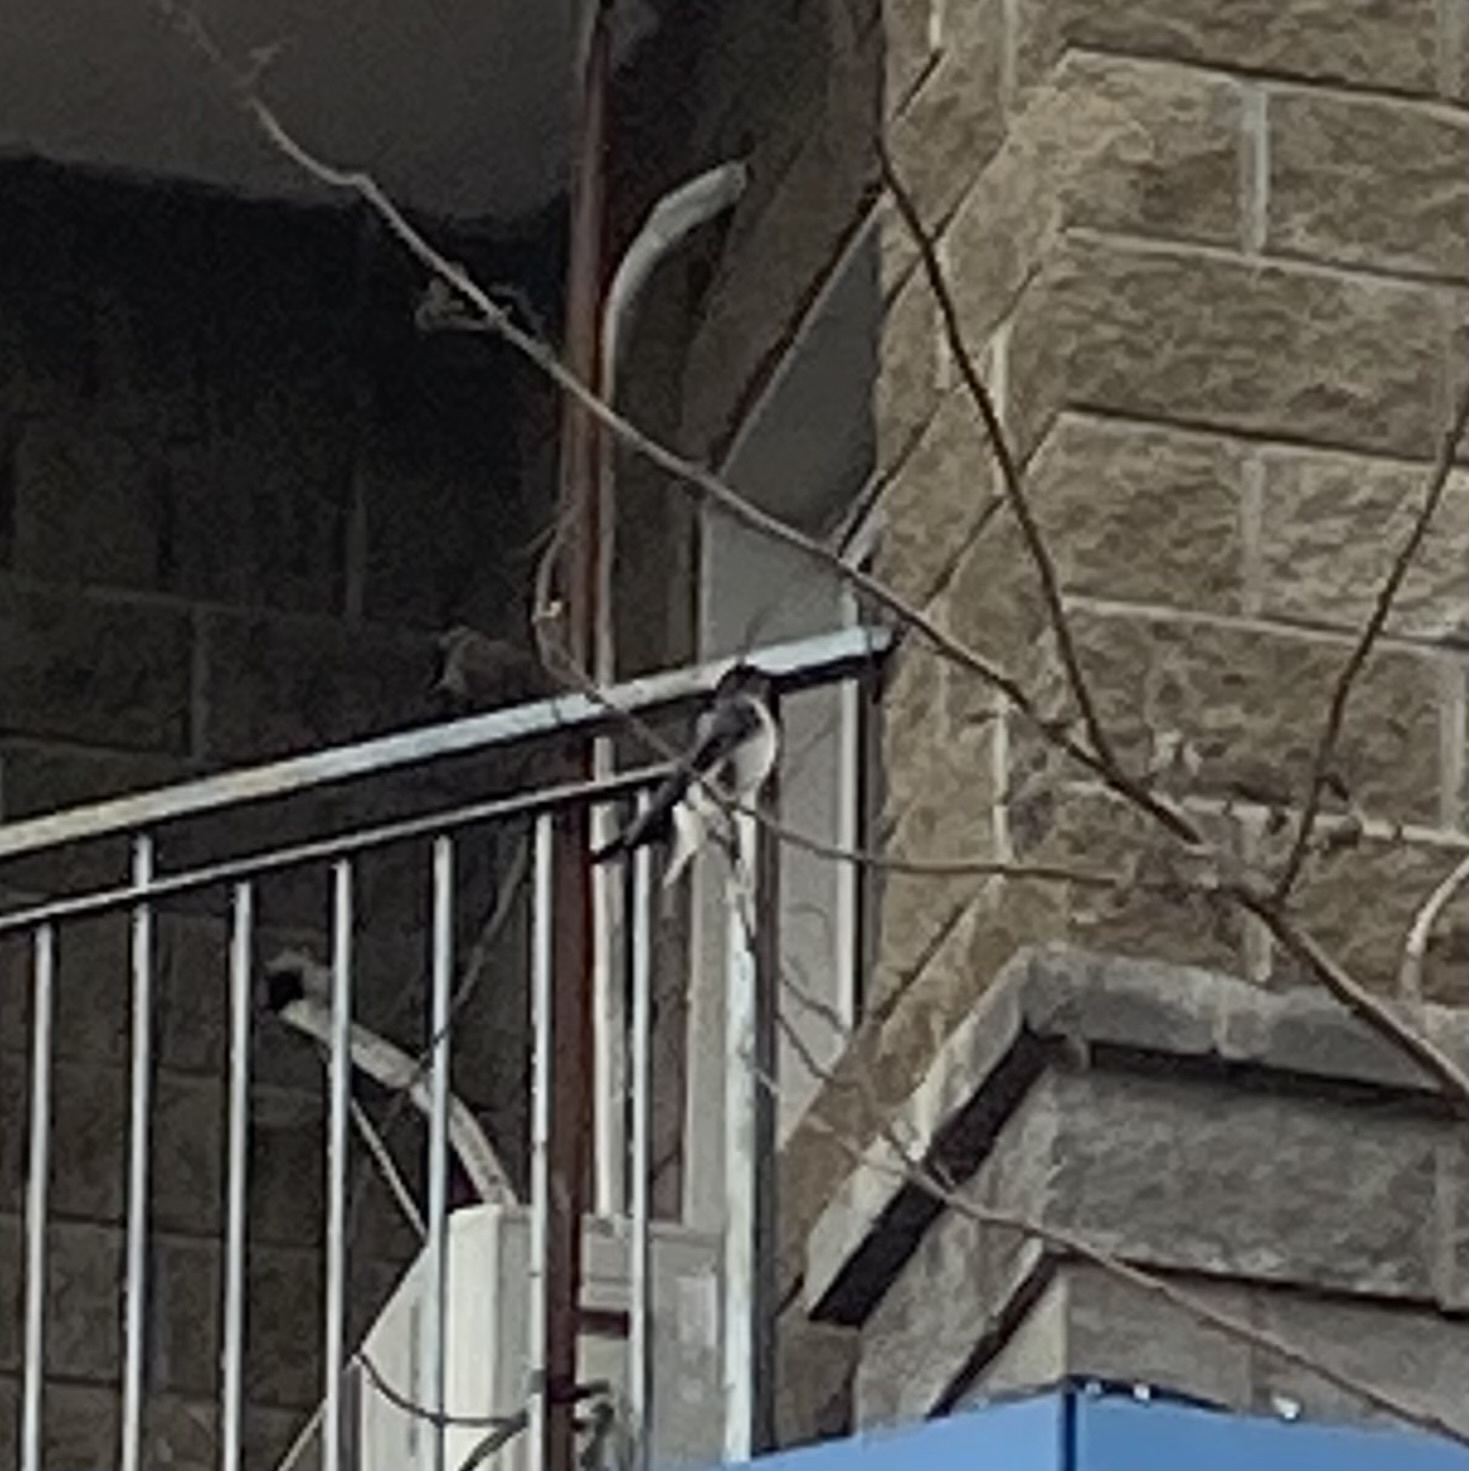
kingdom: Animalia
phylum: Chordata
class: Aves
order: Passeriformes
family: Hirundinidae
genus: Progne
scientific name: Progne chalybea
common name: Grey-breasted martin
